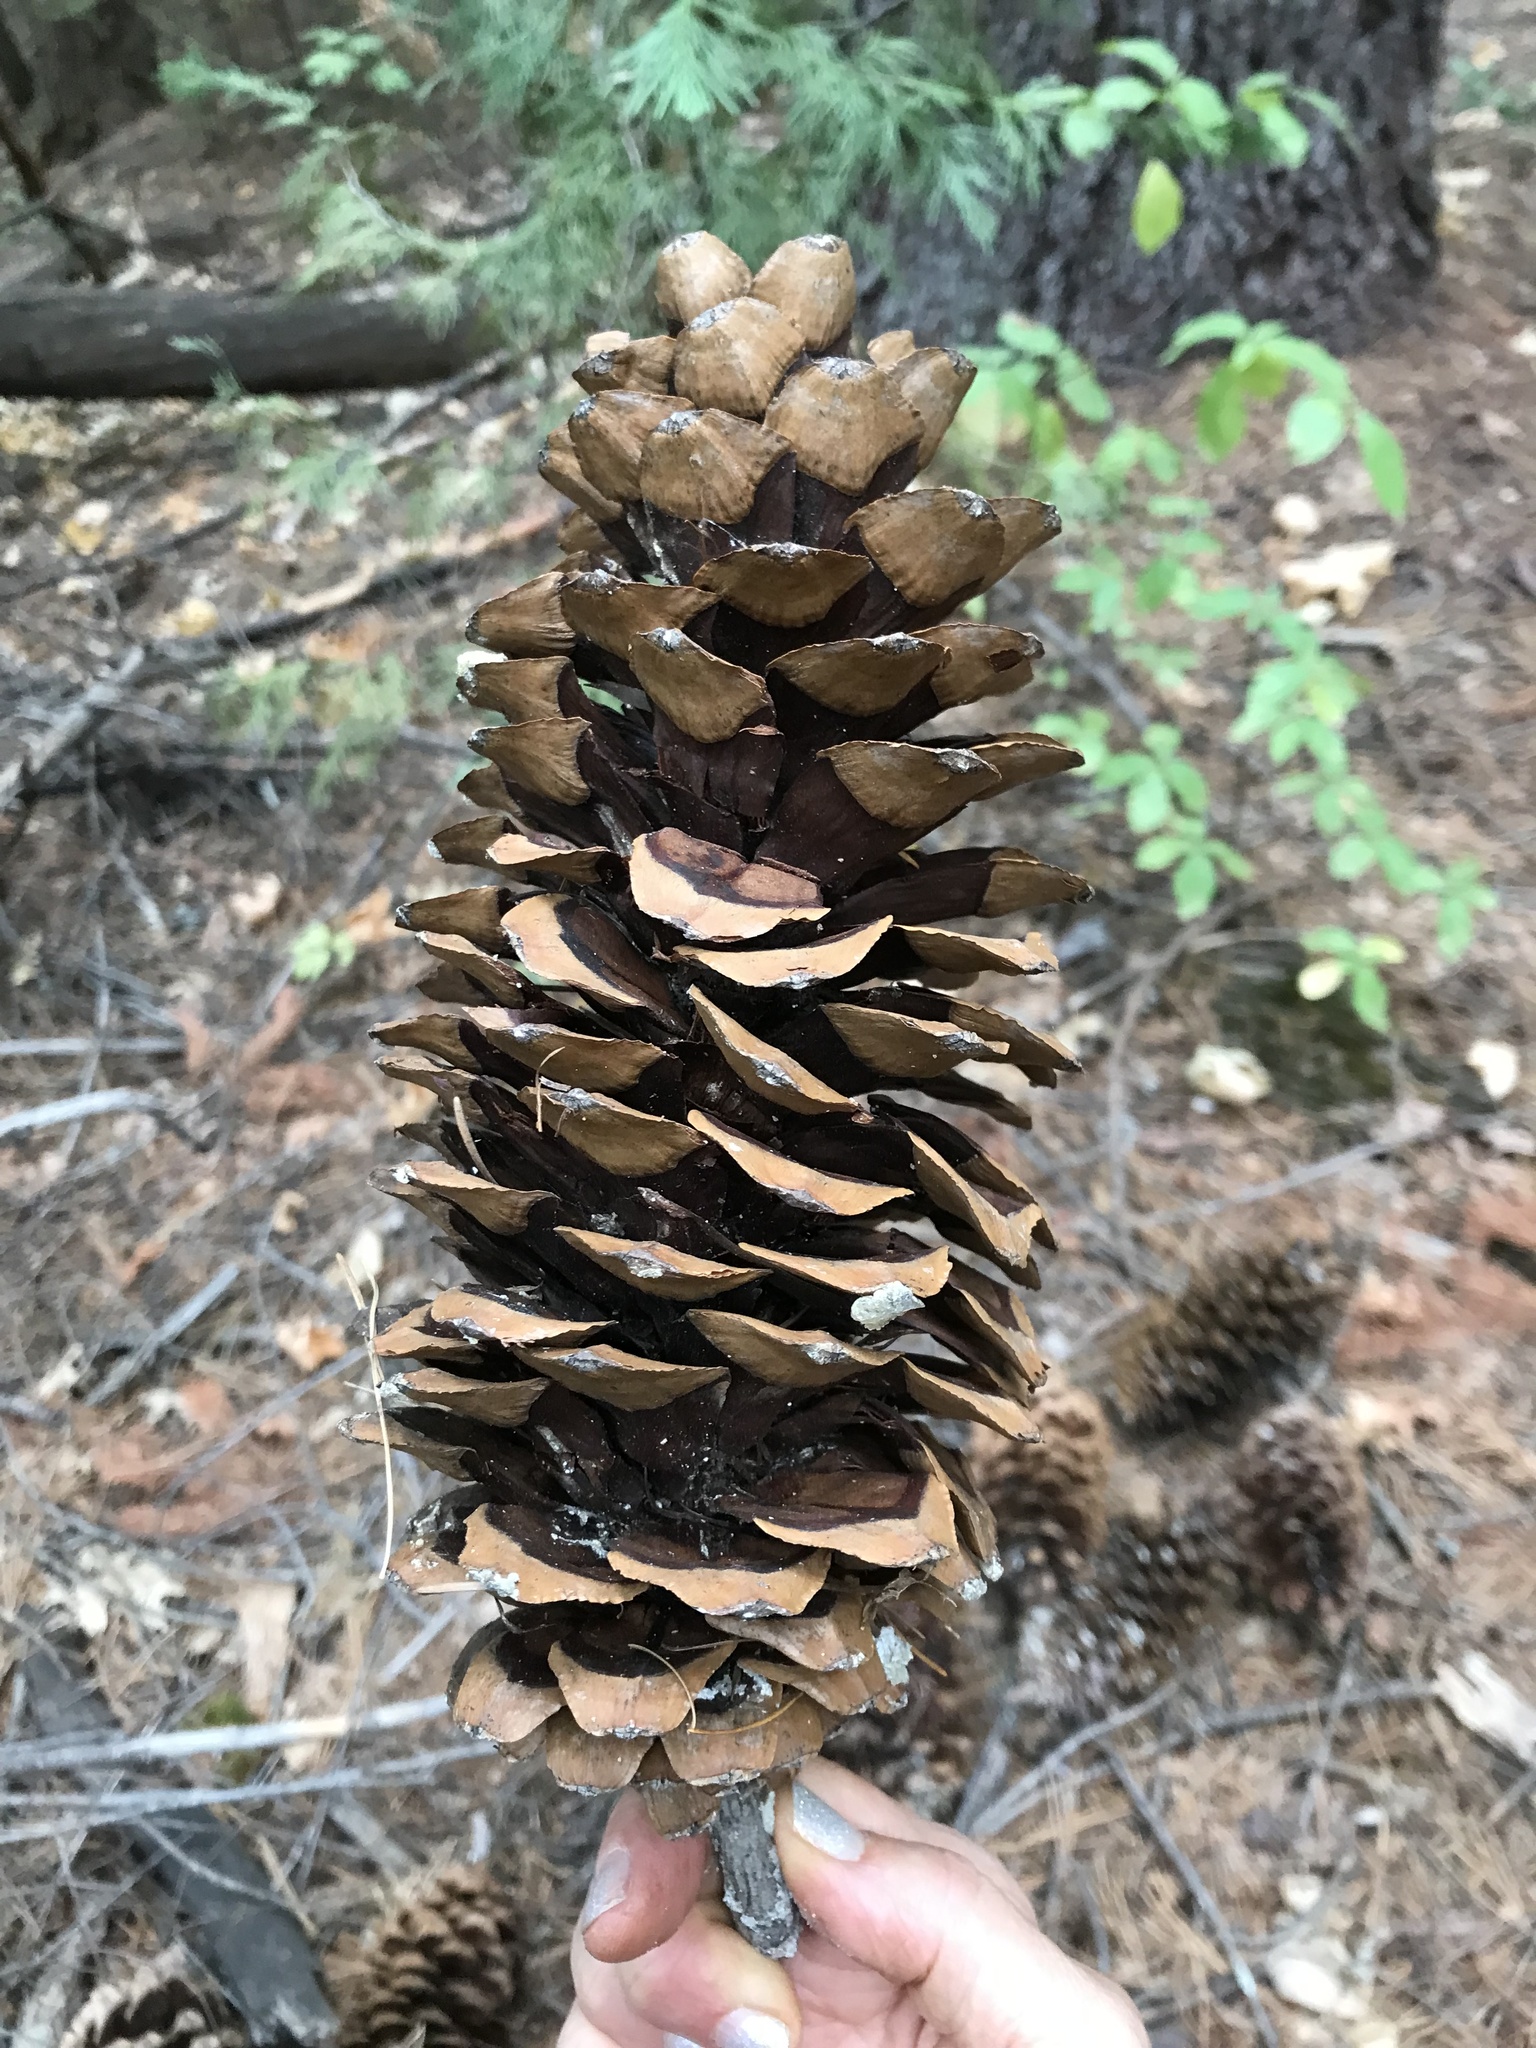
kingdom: Plantae
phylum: Tracheophyta
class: Pinopsida
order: Pinales
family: Pinaceae
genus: Pinus
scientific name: Pinus lambertiana
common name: Sugar pine
